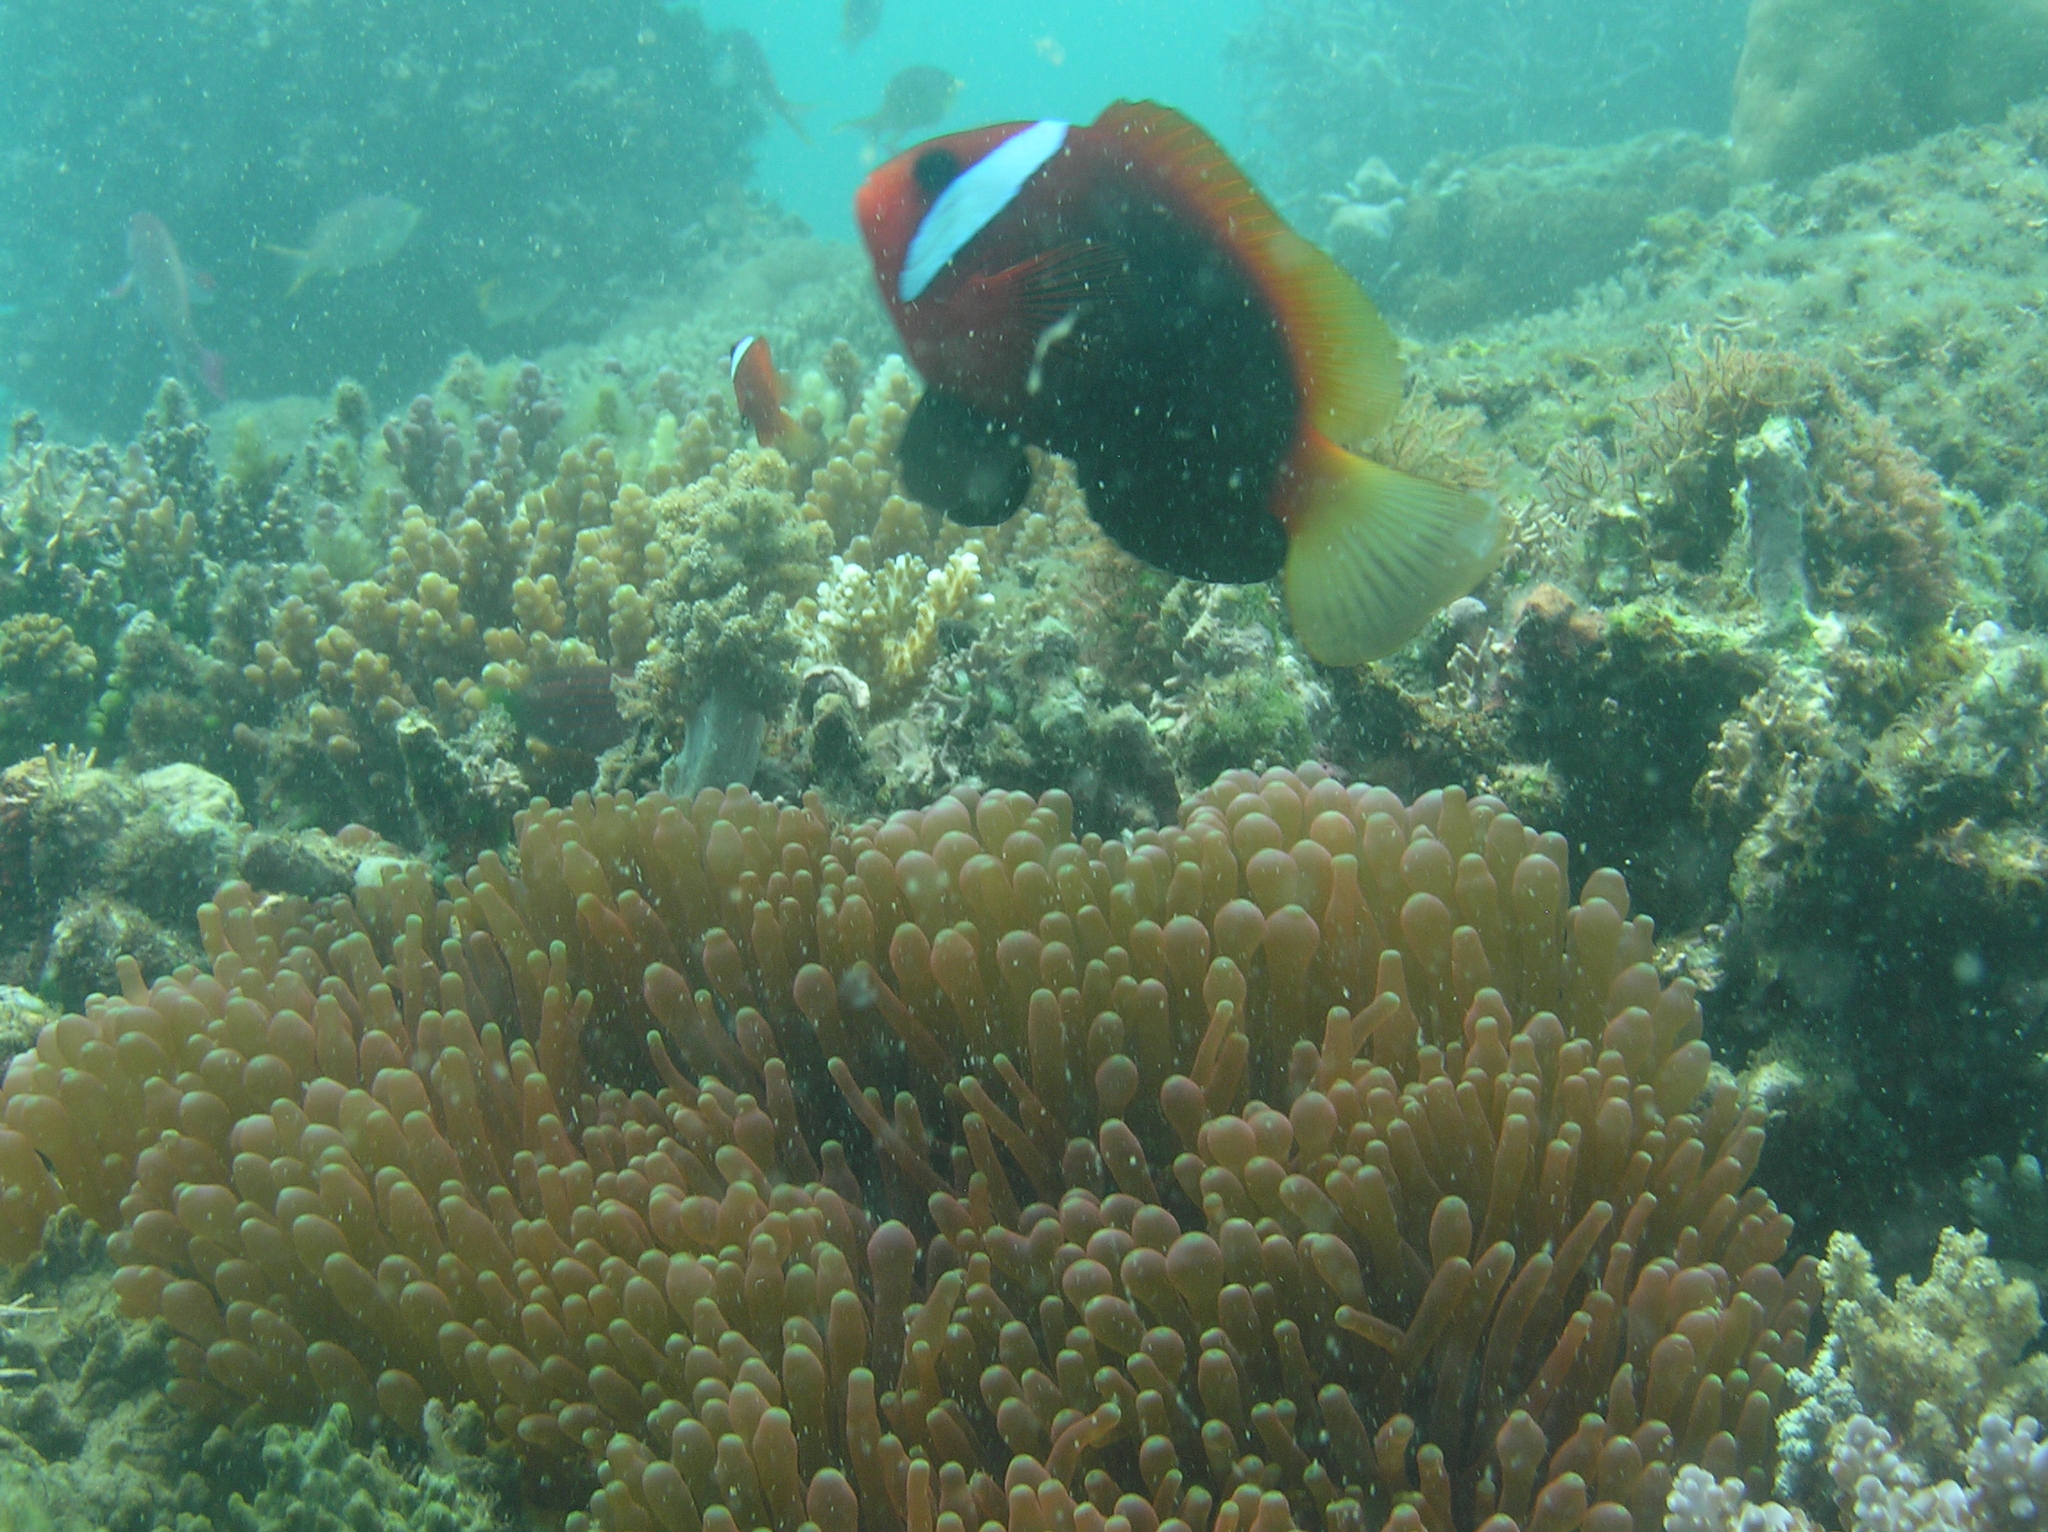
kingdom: Animalia
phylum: Chordata
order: Perciformes
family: Pomacentridae
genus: Amphiprion
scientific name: Amphiprion melanopus
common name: Black anemonefish
